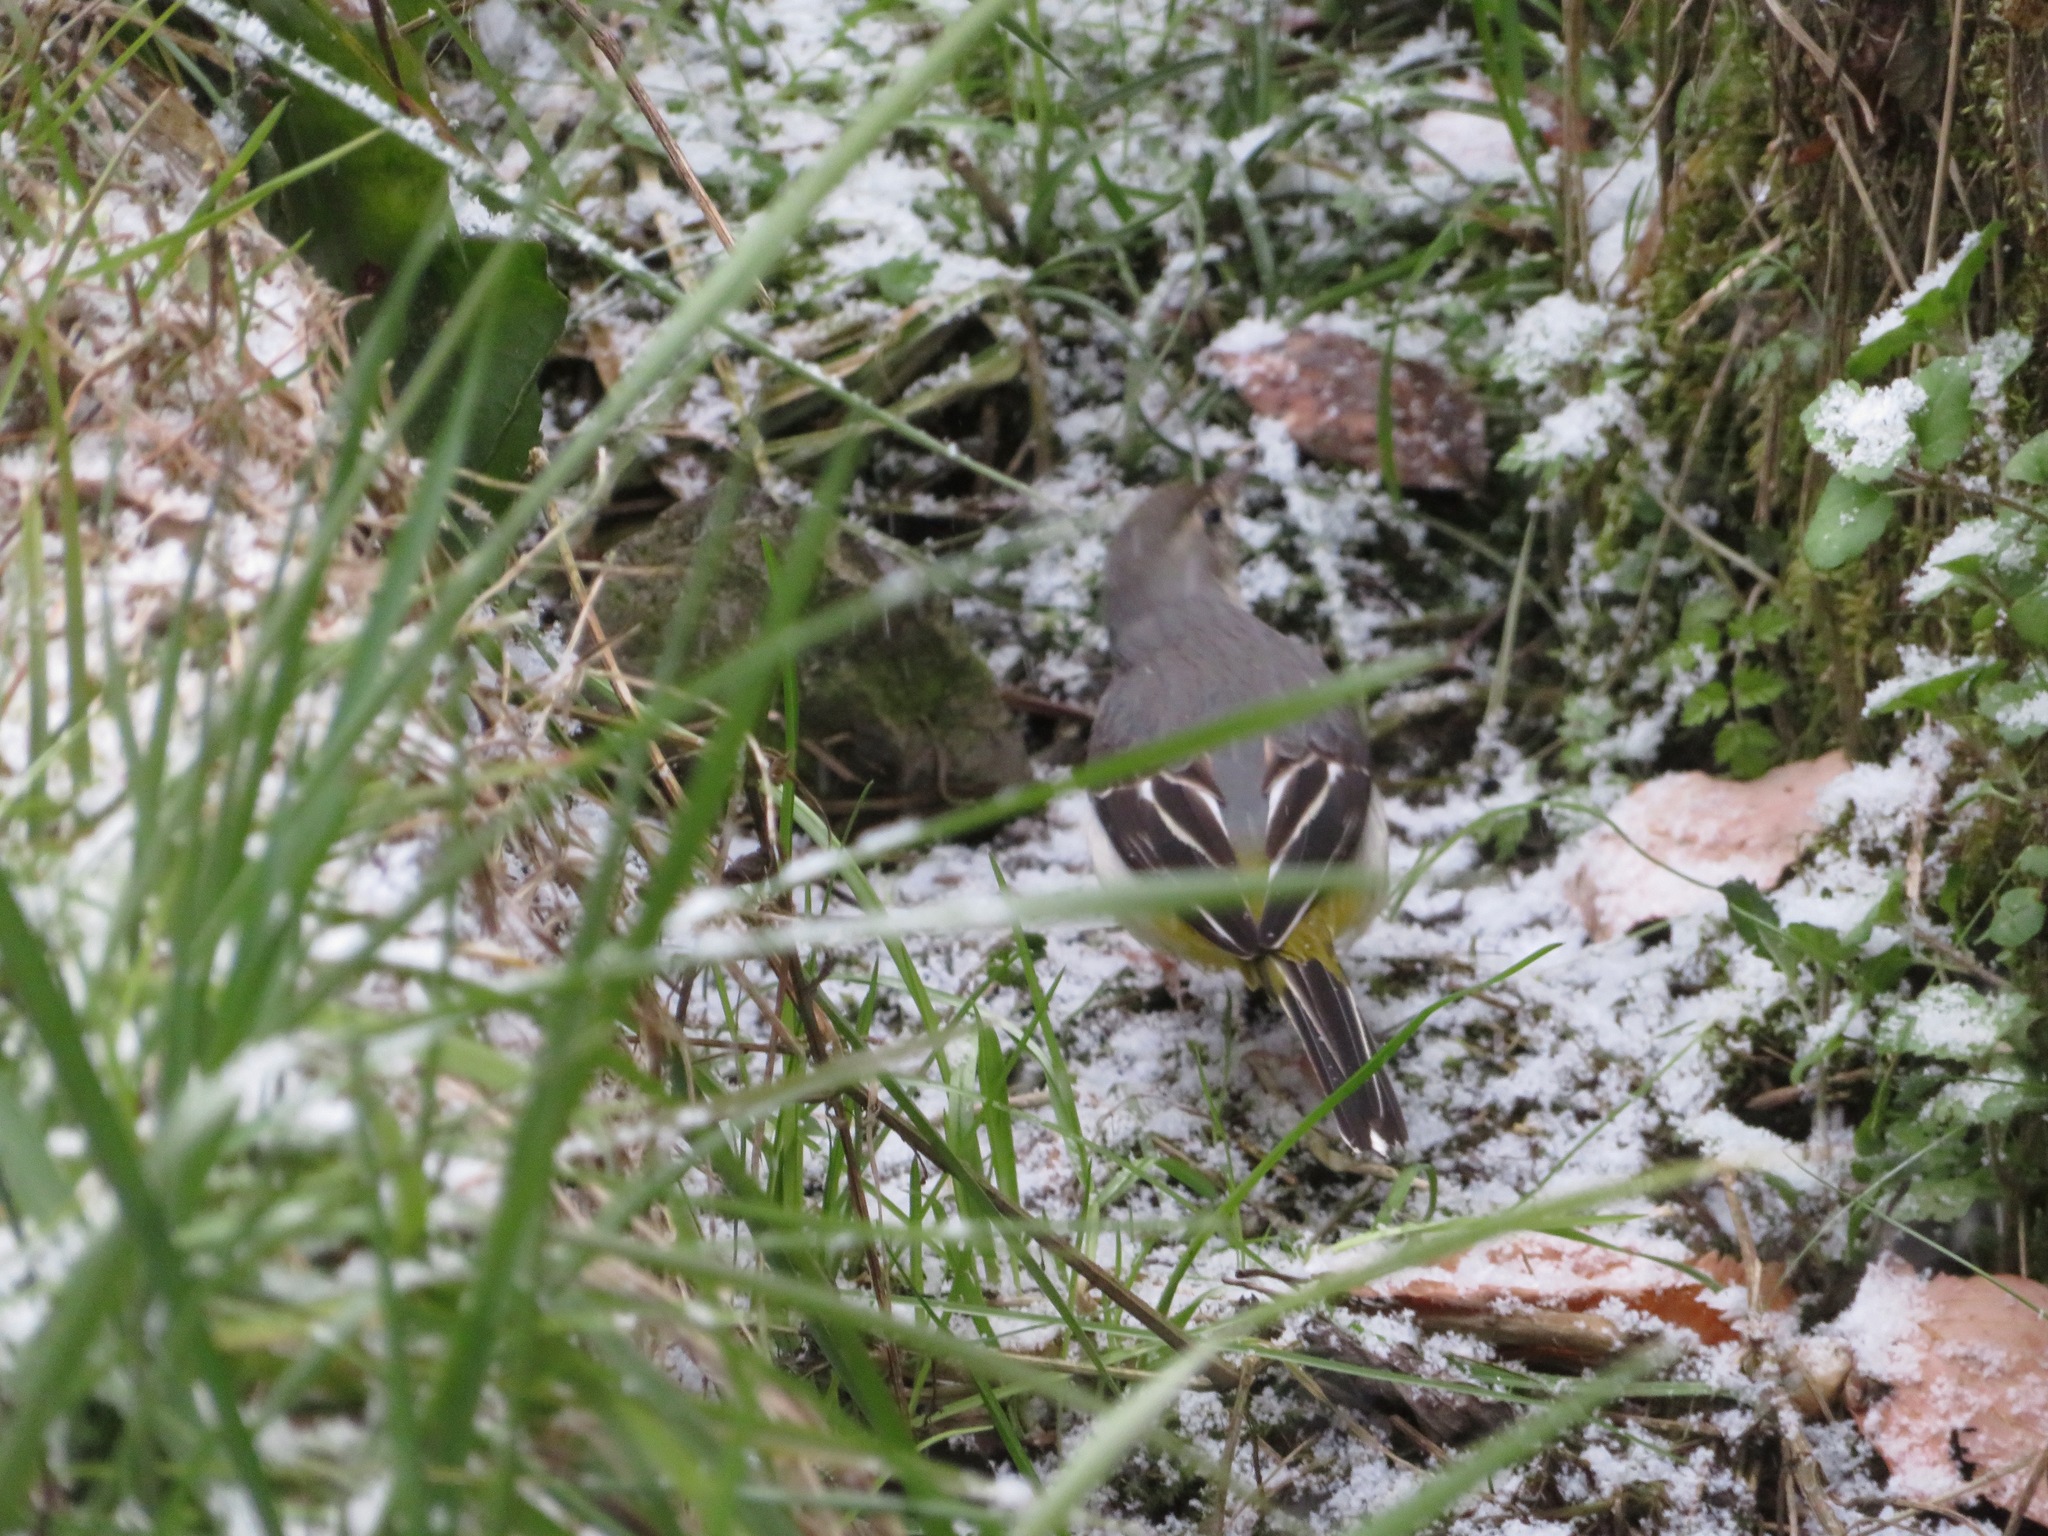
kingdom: Animalia
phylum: Chordata
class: Aves
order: Passeriformes
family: Motacillidae
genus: Motacilla
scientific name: Motacilla cinerea
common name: Grey wagtail
